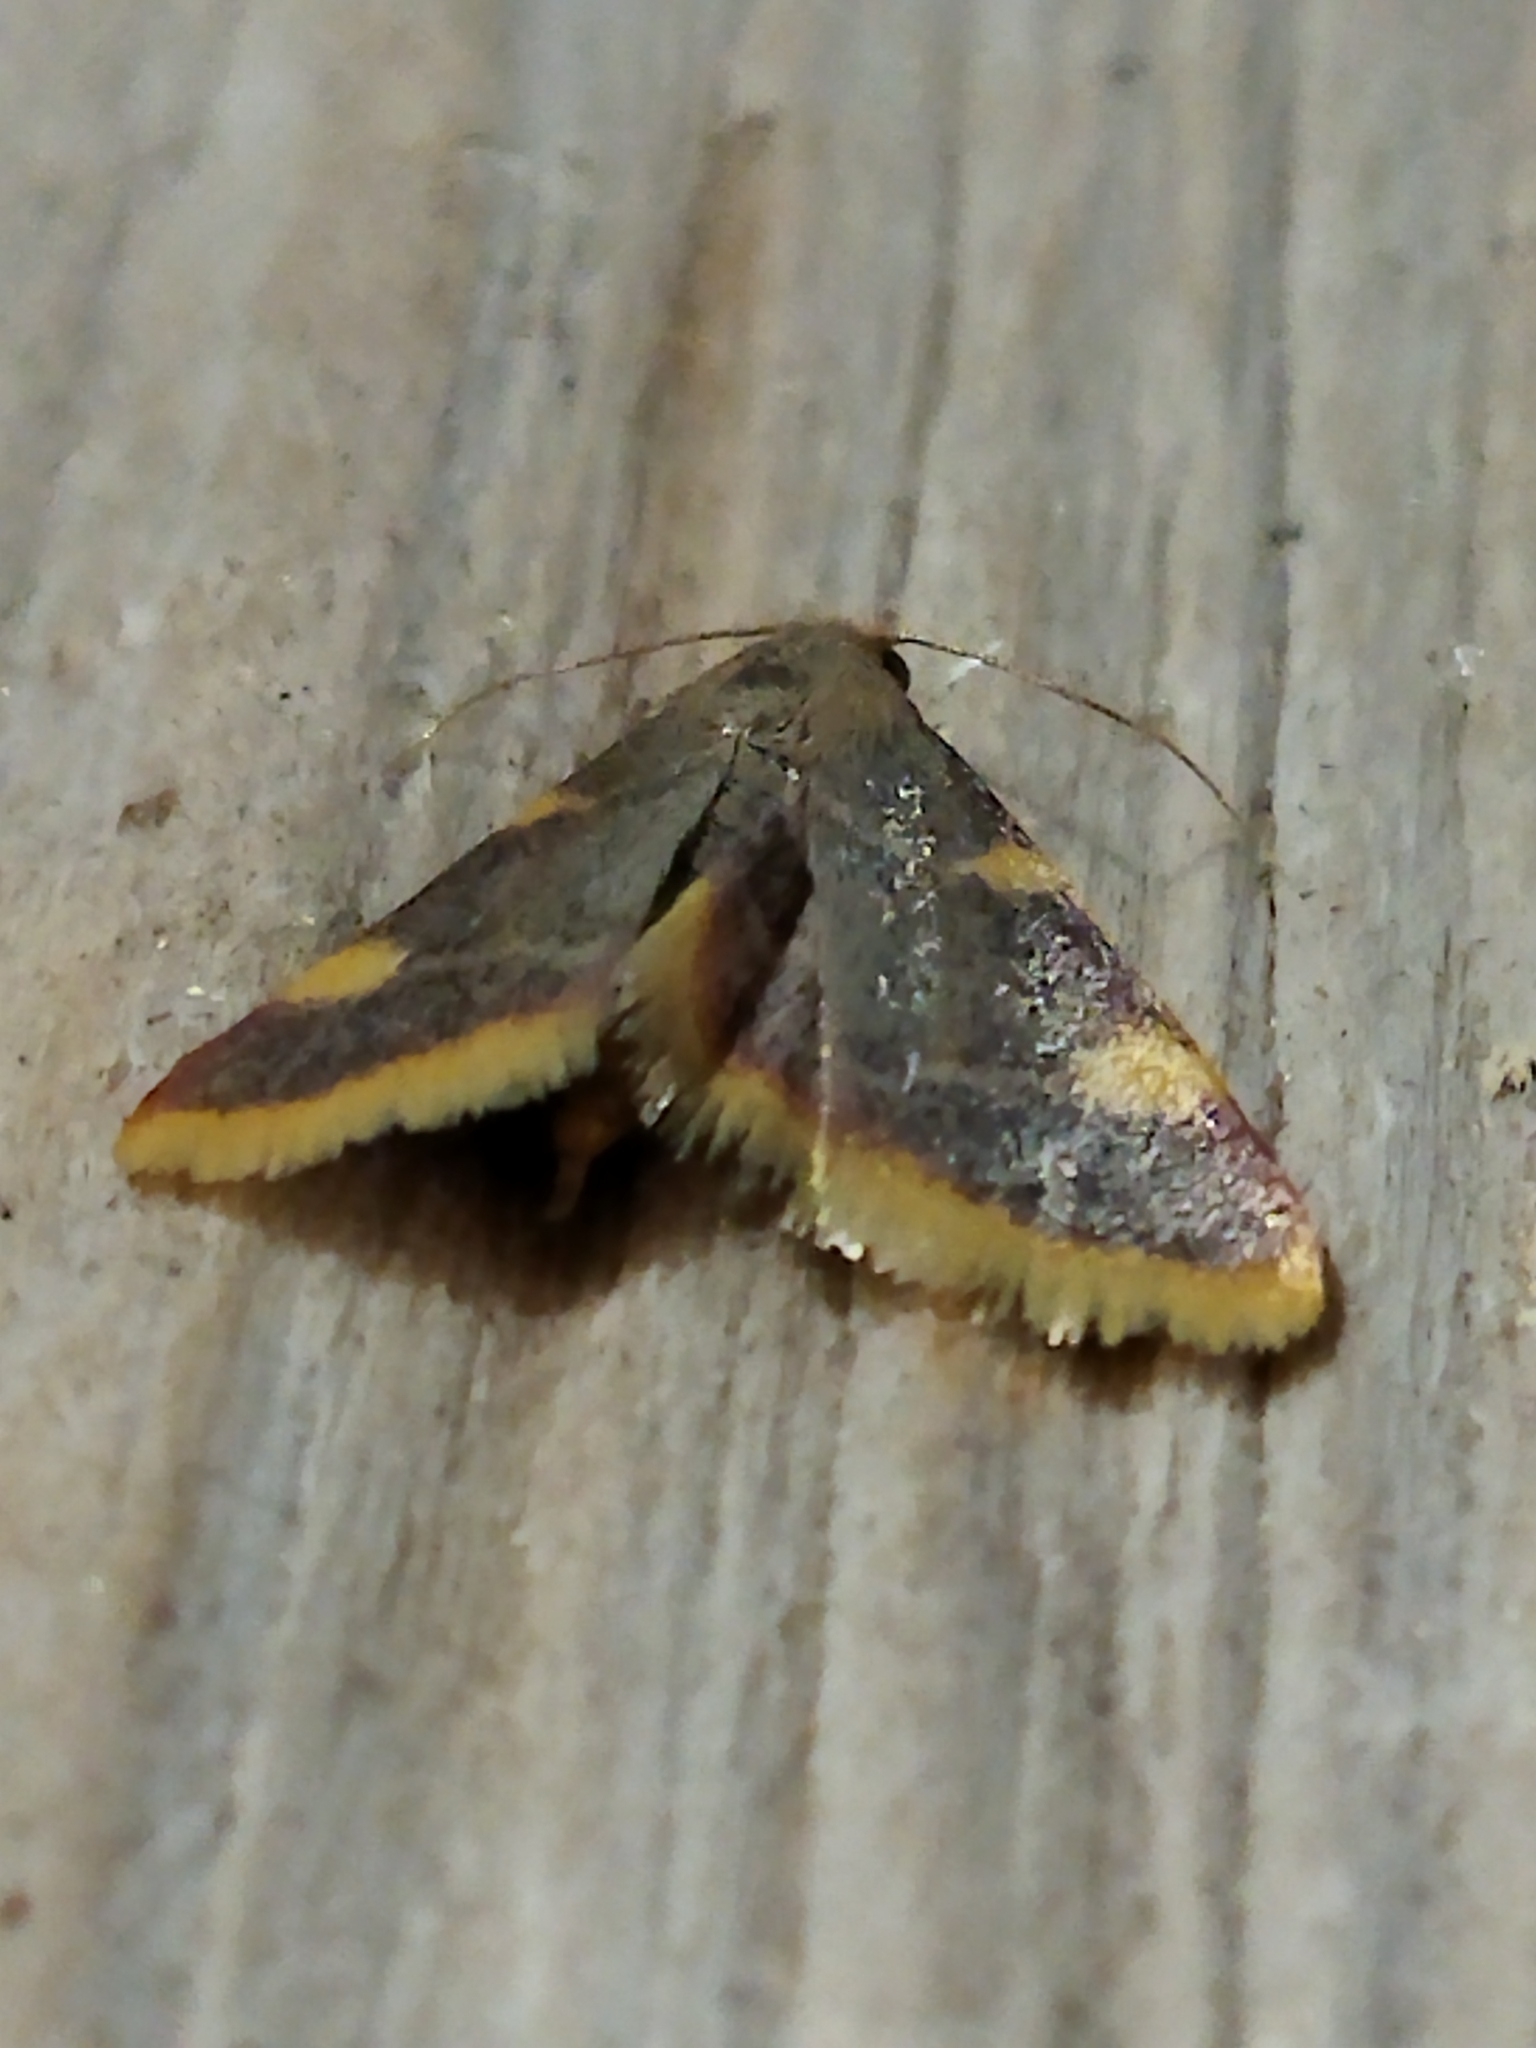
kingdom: Animalia
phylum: Arthropoda
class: Insecta
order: Lepidoptera
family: Pyralidae
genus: Hypsopygia
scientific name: Hypsopygia costalis
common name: Gold triangle
